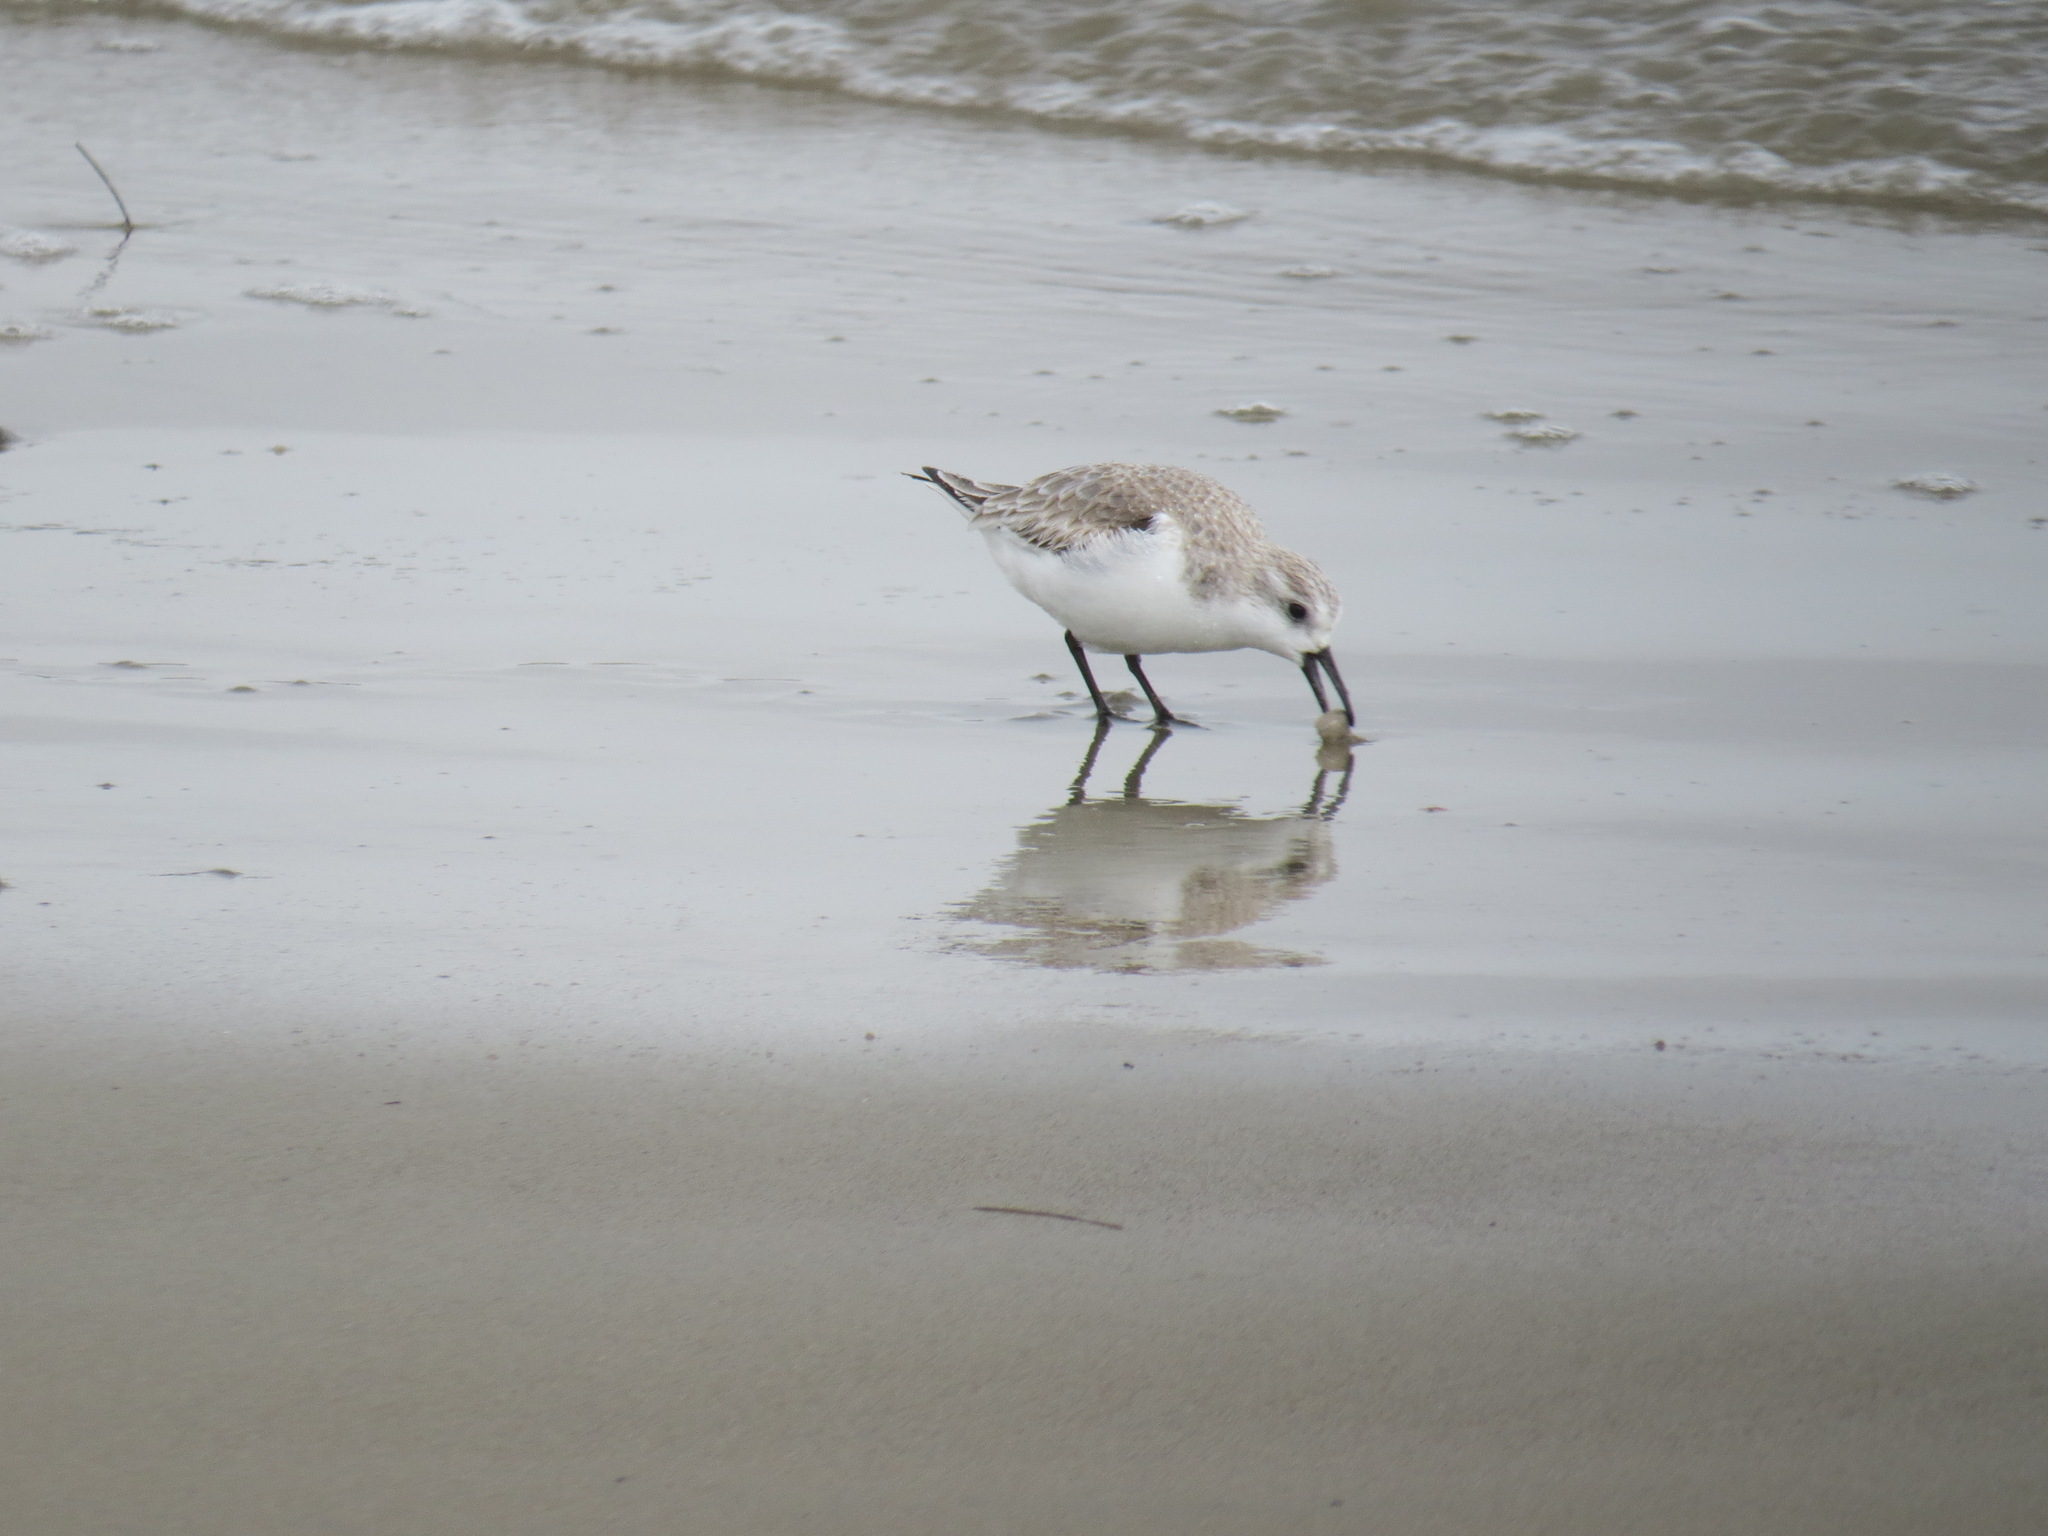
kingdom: Animalia
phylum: Chordata
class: Aves
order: Charadriiformes
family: Scolopacidae
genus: Calidris
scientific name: Calidris alba
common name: Sanderling
